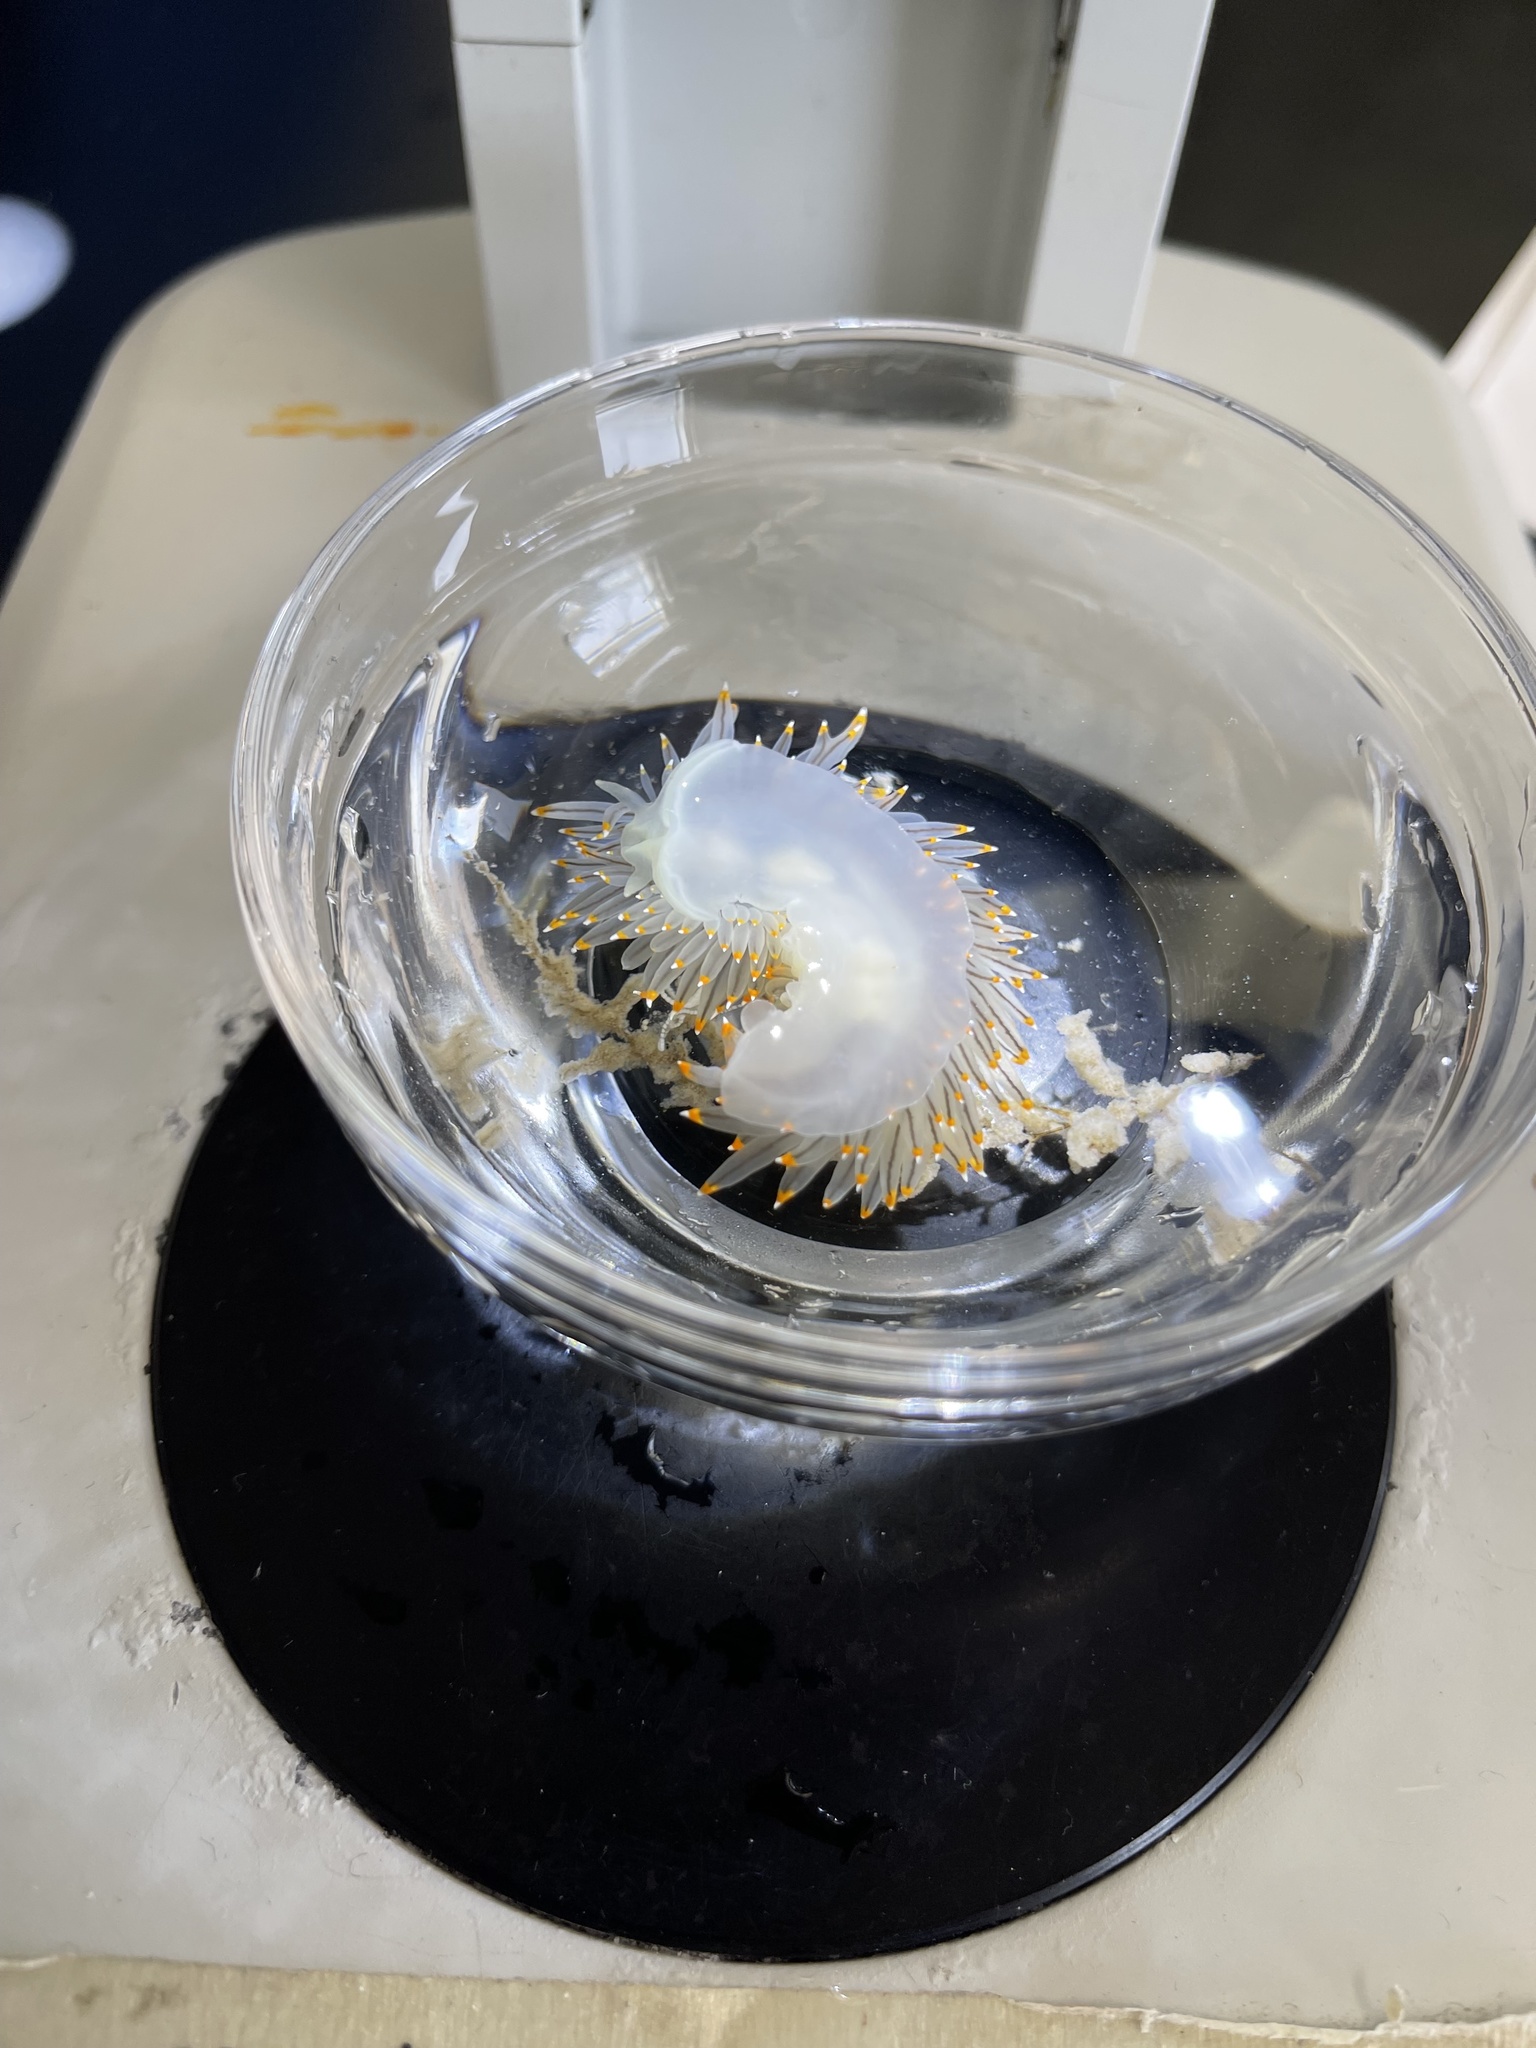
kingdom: Animalia
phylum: Mollusca
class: Gastropoda
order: Nudibranchia
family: Janolidae
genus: Antiopella
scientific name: Antiopella fusca
